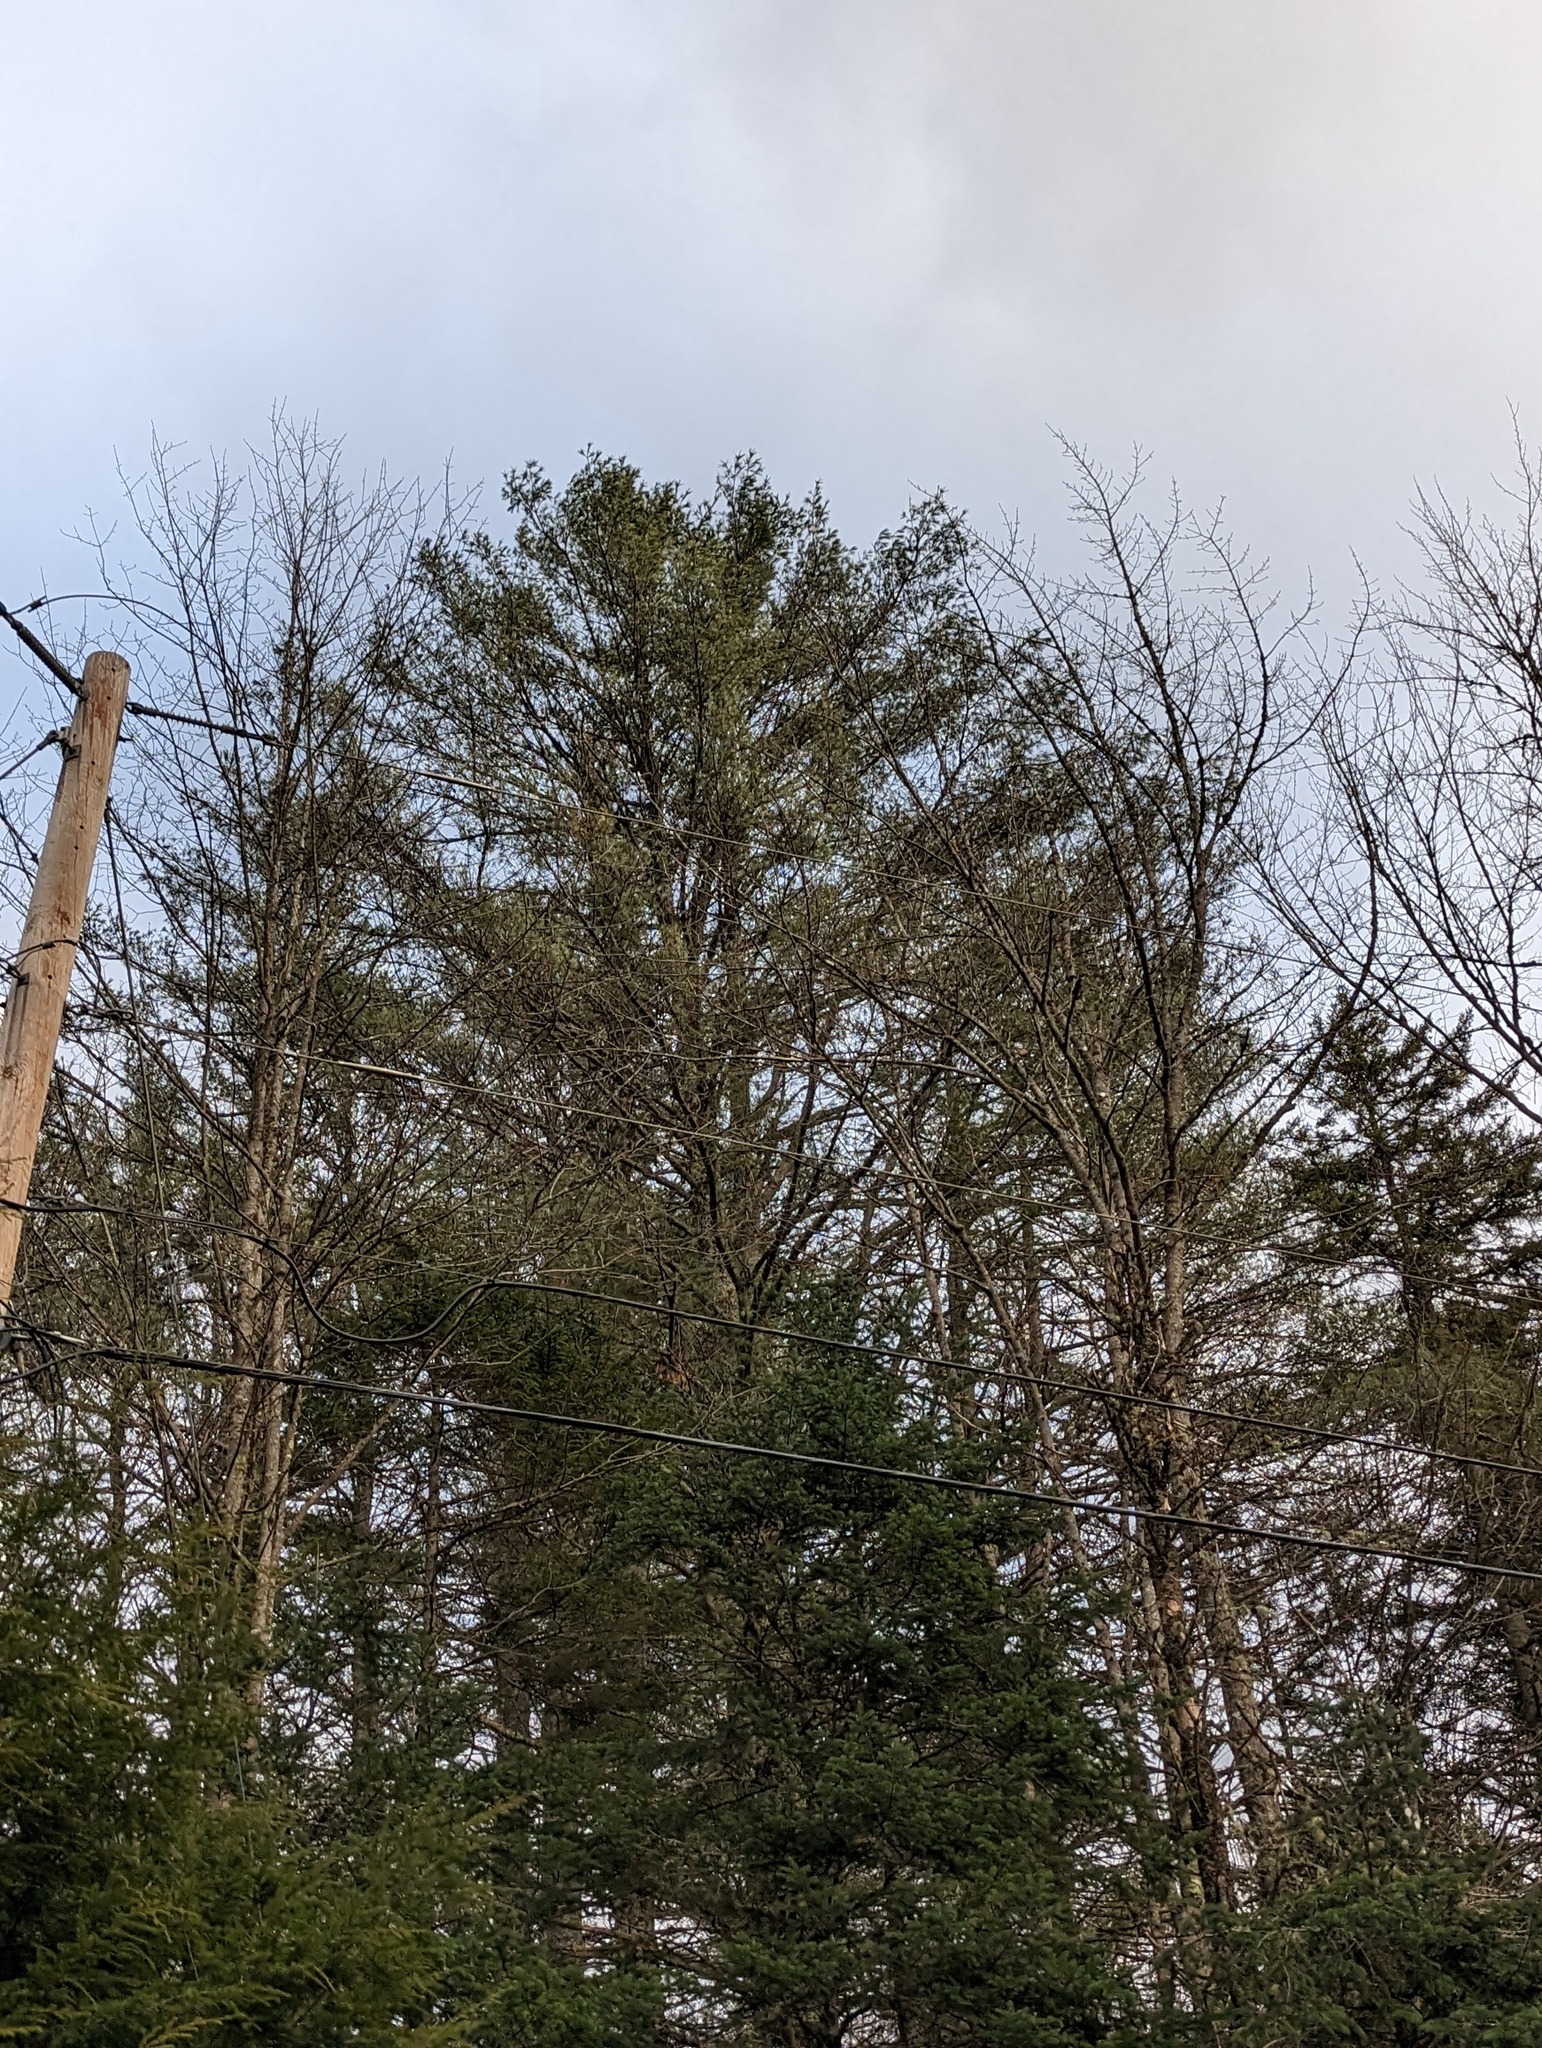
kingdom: Plantae
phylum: Tracheophyta
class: Pinopsida
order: Pinales
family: Pinaceae
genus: Pinus
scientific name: Pinus strobus
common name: Weymouth pine
